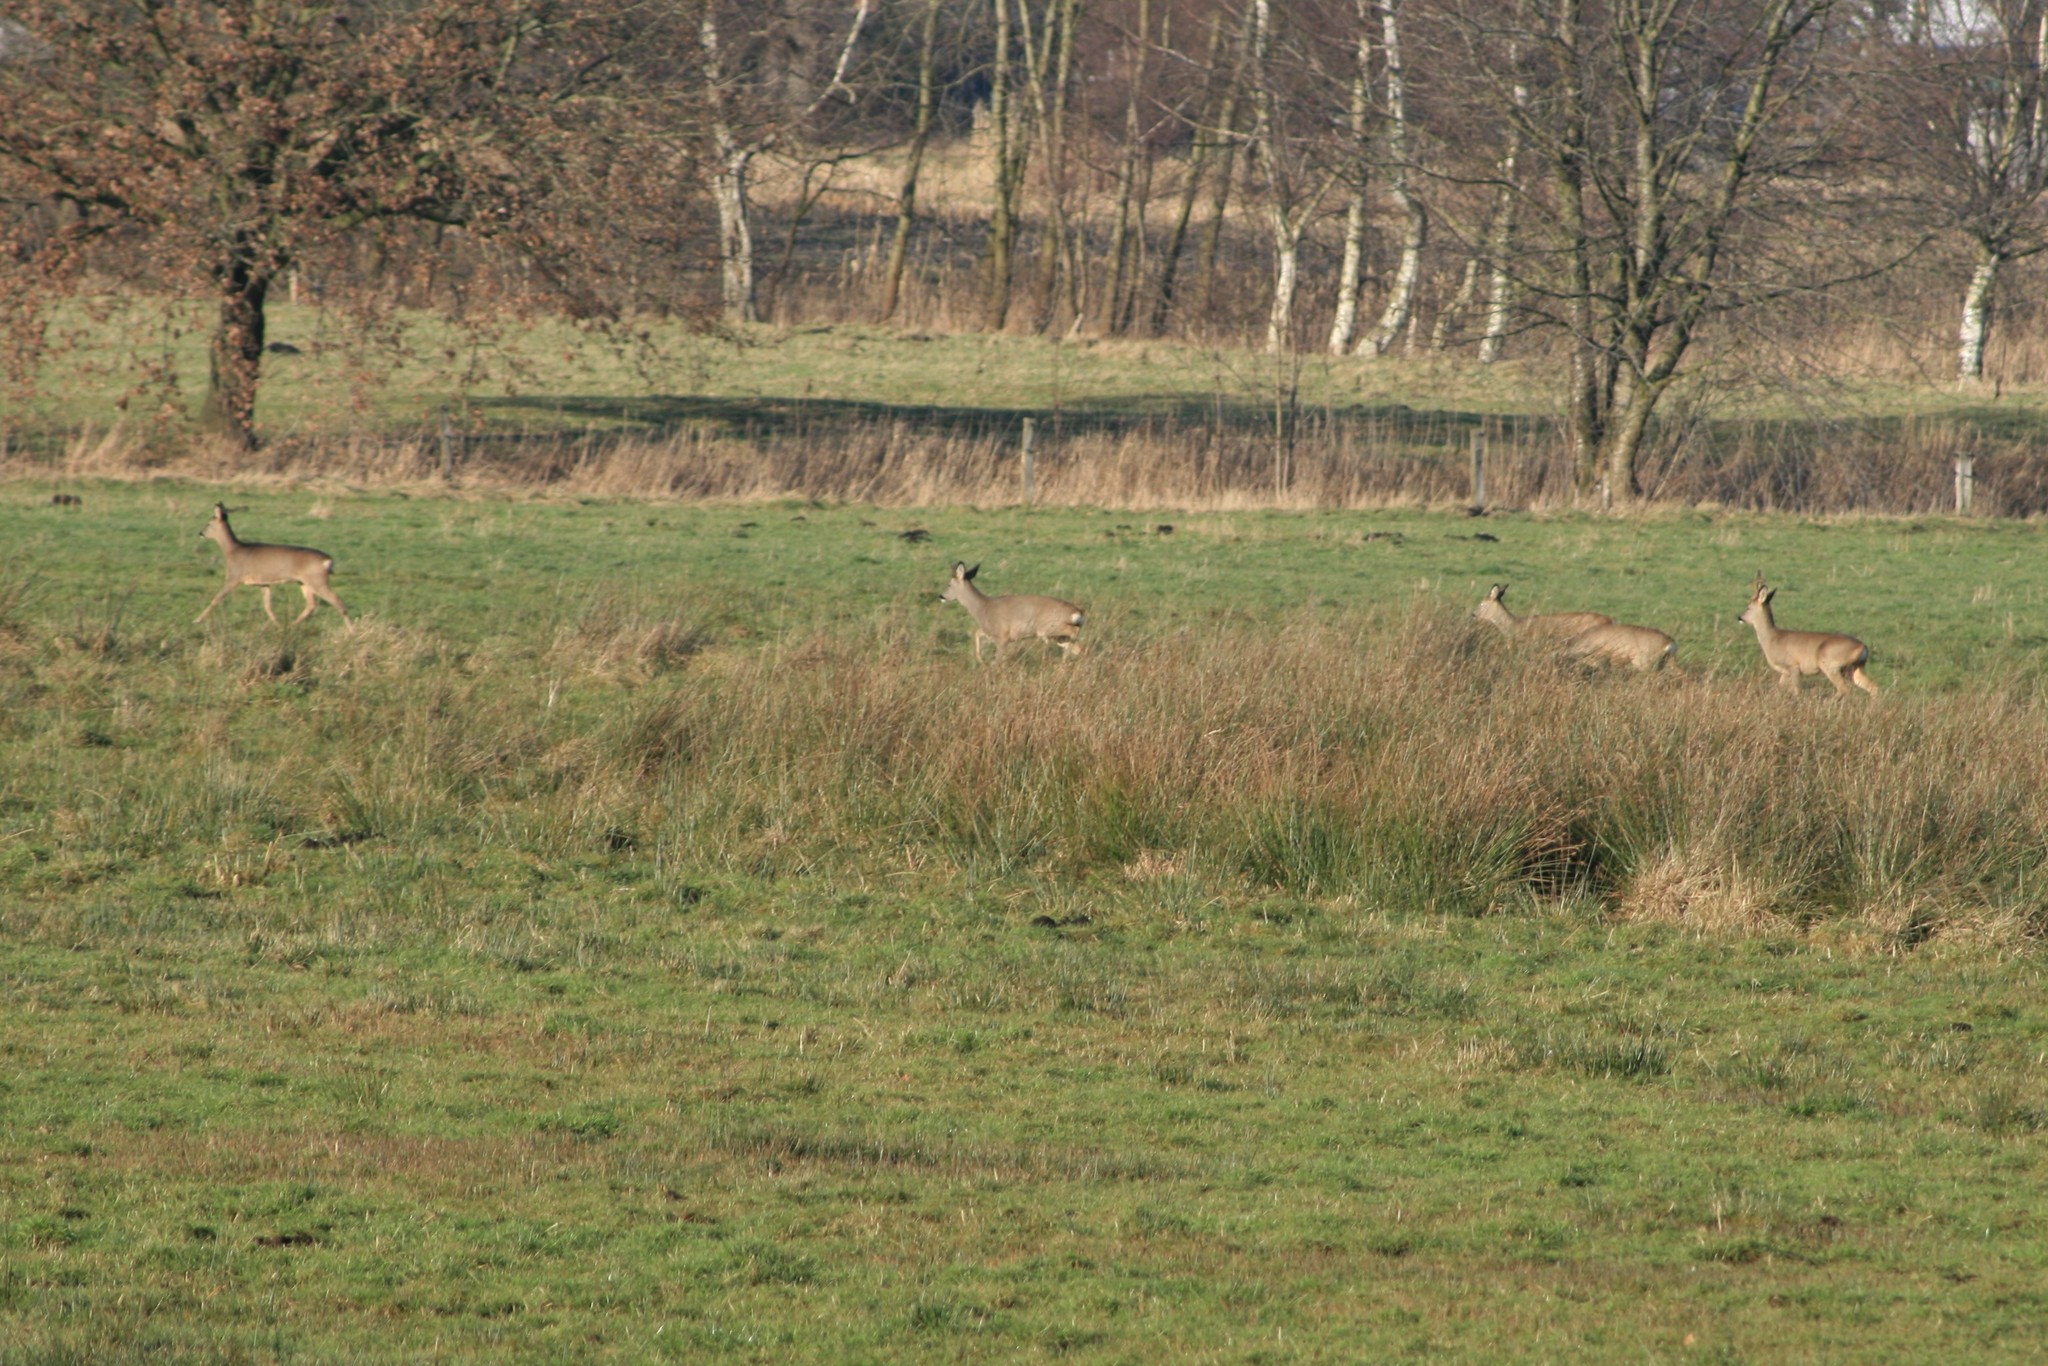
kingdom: Animalia
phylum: Chordata
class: Mammalia
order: Artiodactyla
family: Cervidae
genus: Capreolus
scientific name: Capreolus capreolus
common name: Western roe deer
